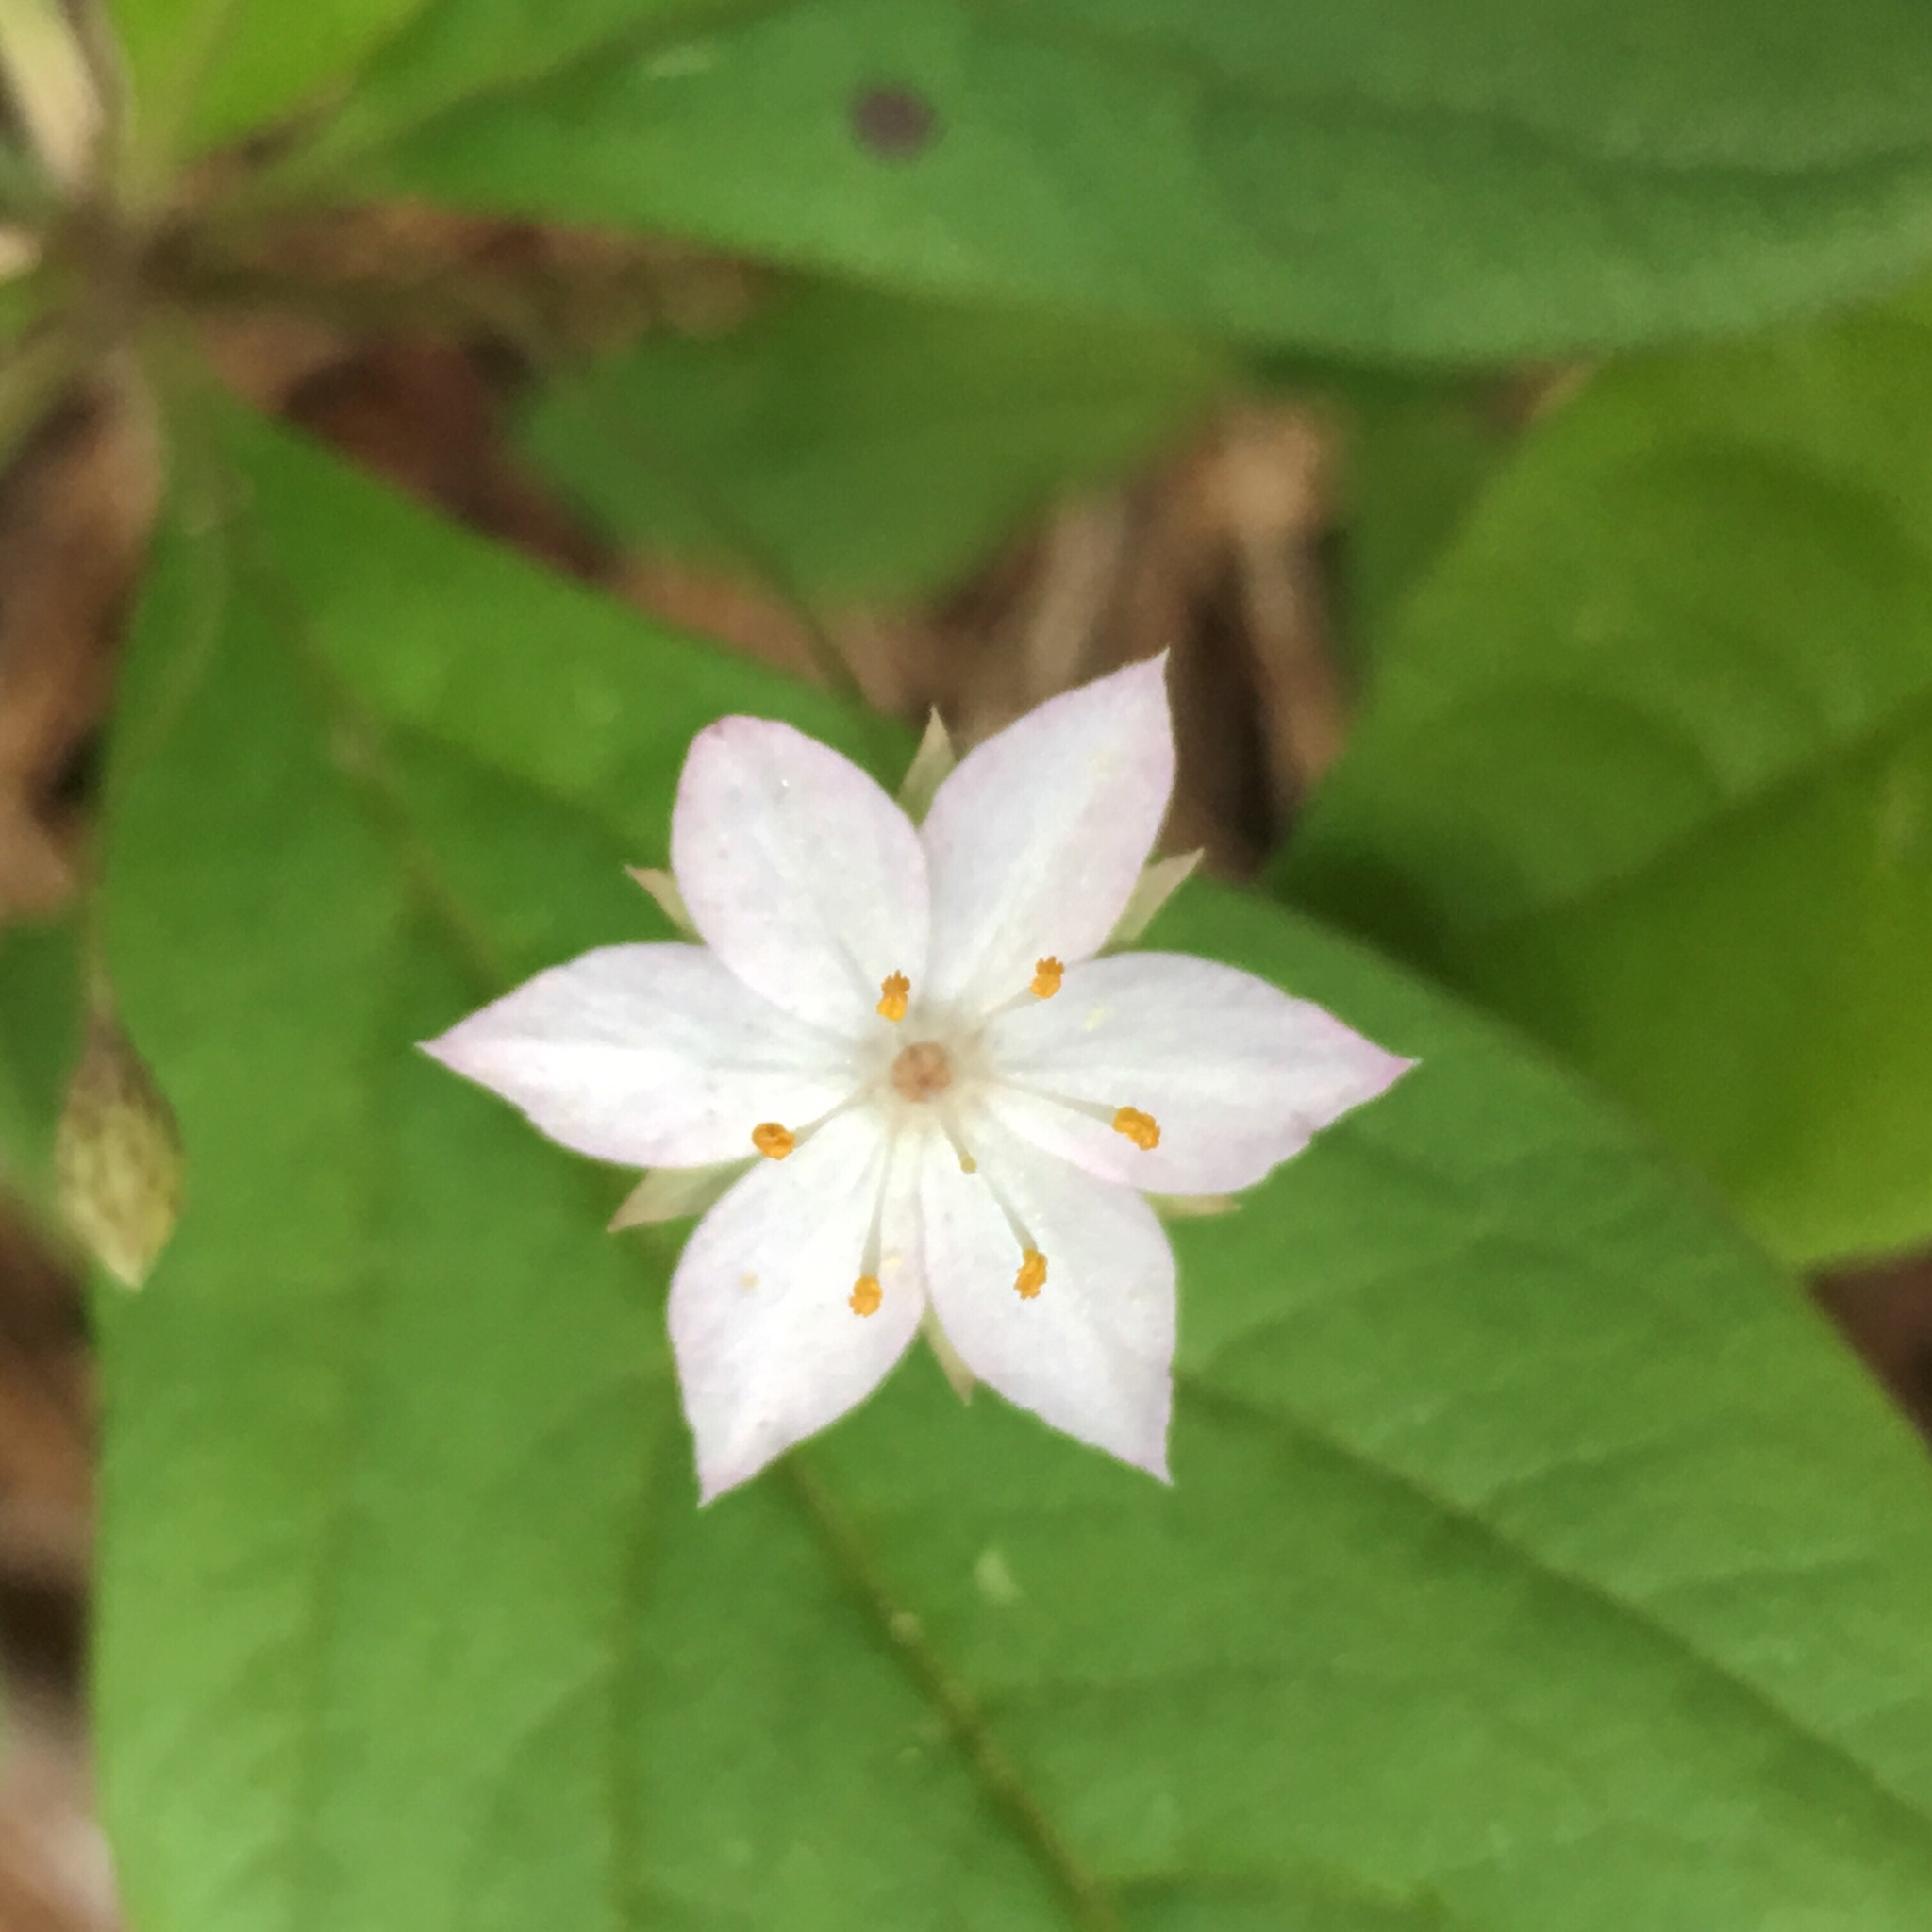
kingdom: Plantae
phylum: Tracheophyta
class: Magnoliopsida
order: Ericales
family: Primulaceae
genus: Lysimachia
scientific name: Lysimachia latifolia
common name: Pacific starflower
